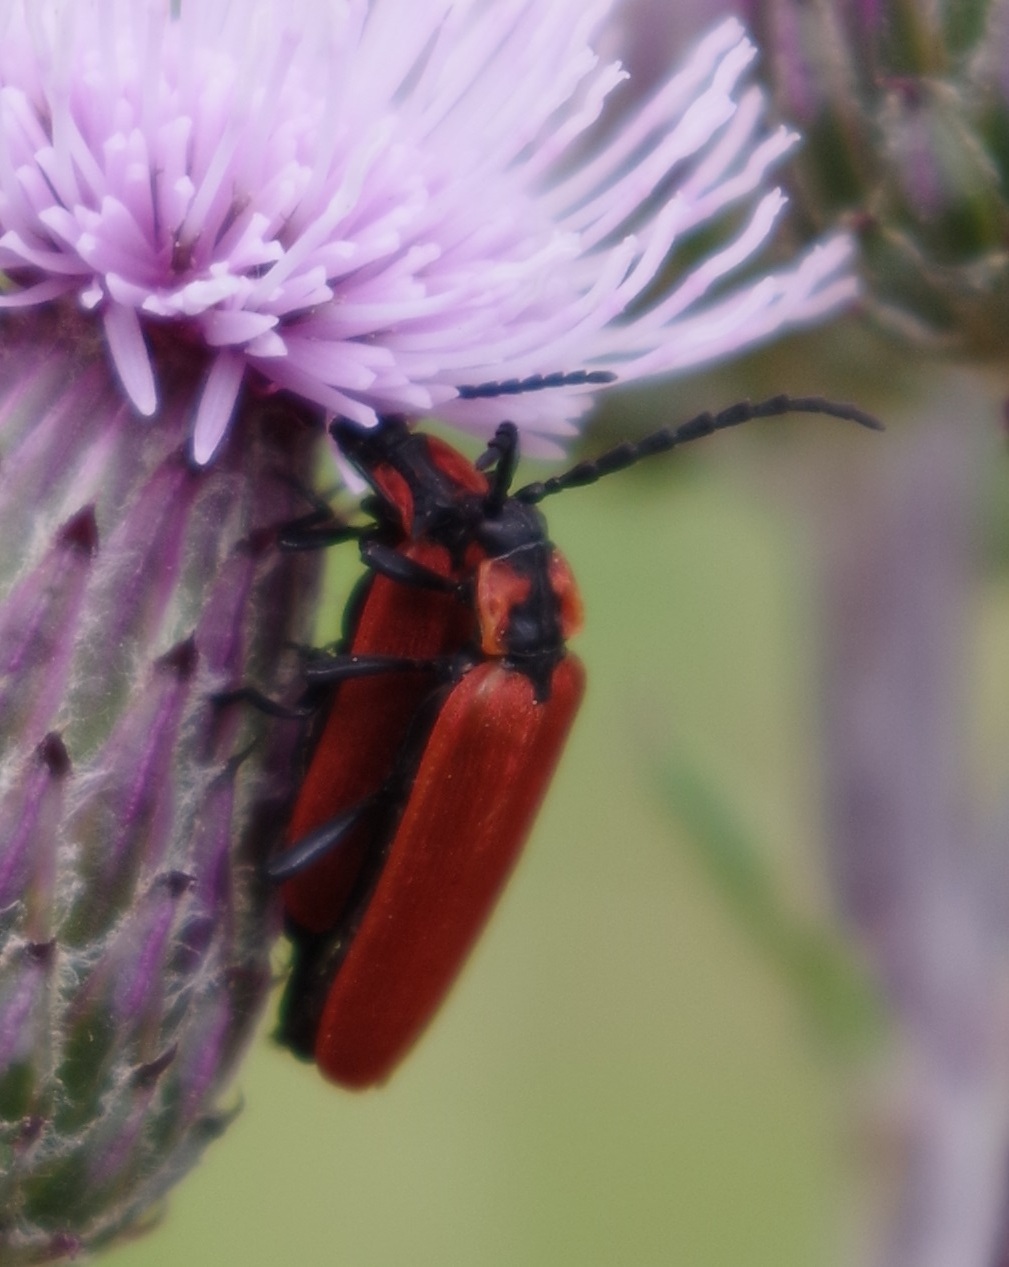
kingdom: Animalia
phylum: Arthropoda
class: Insecta
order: Coleoptera
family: Lycidae
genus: Lygistopterus
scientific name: Lygistopterus sanguineus
